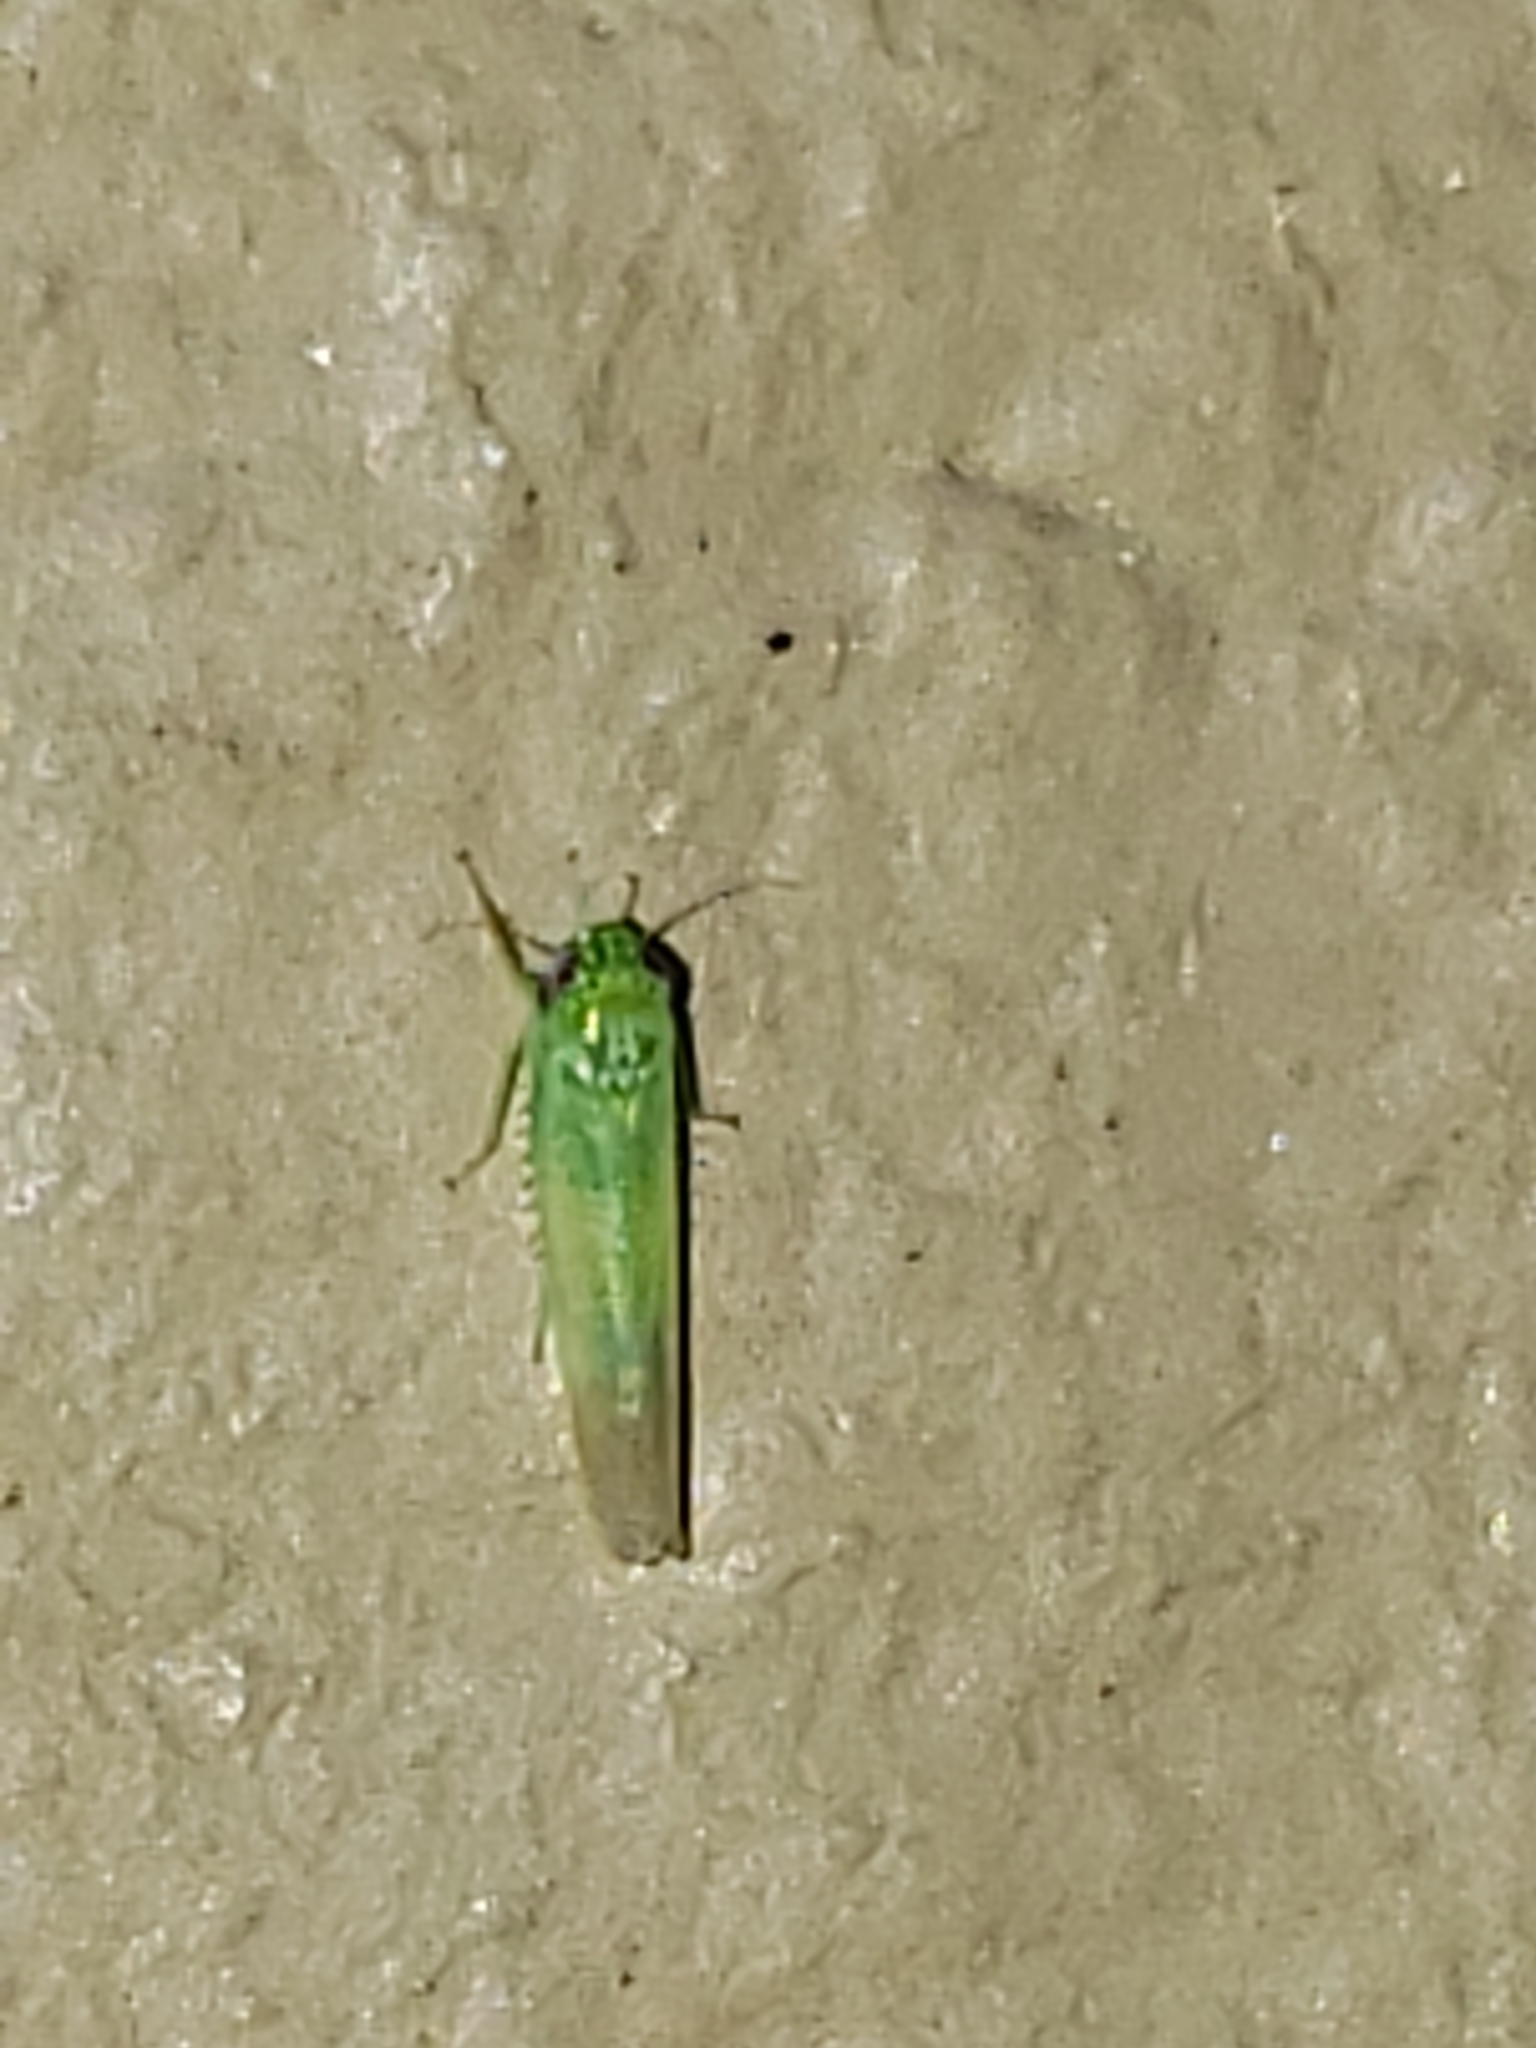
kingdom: Animalia
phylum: Arthropoda
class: Insecta
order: Hemiptera
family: Cicadellidae
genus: Empoasca
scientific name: Empoasca fabae
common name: Potato leafhopper
